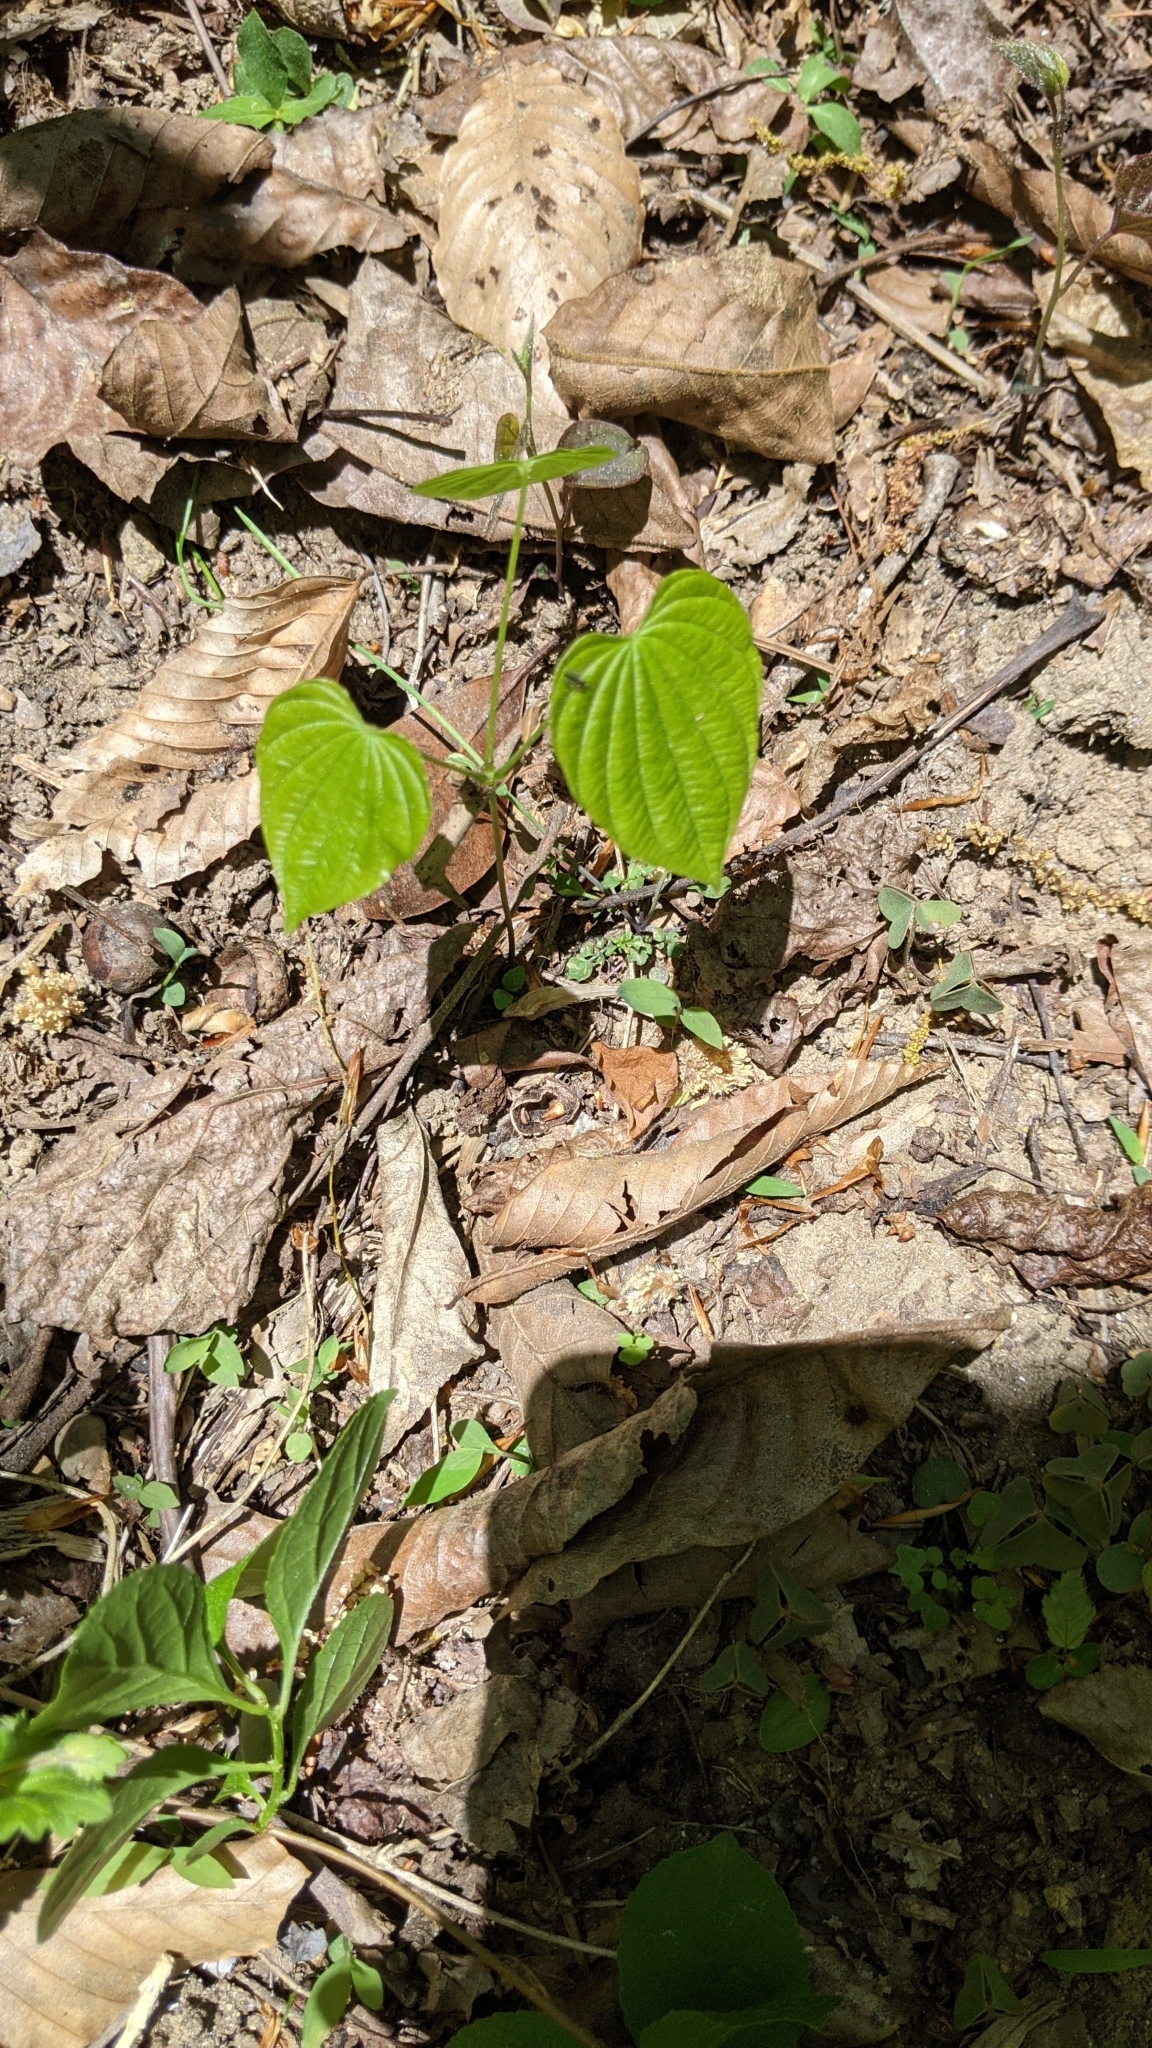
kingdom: Plantae
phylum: Tracheophyta
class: Liliopsida
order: Dioscoreales
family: Dioscoreaceae
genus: Dioscorea
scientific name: Dioscorea villosa
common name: Wild yam
